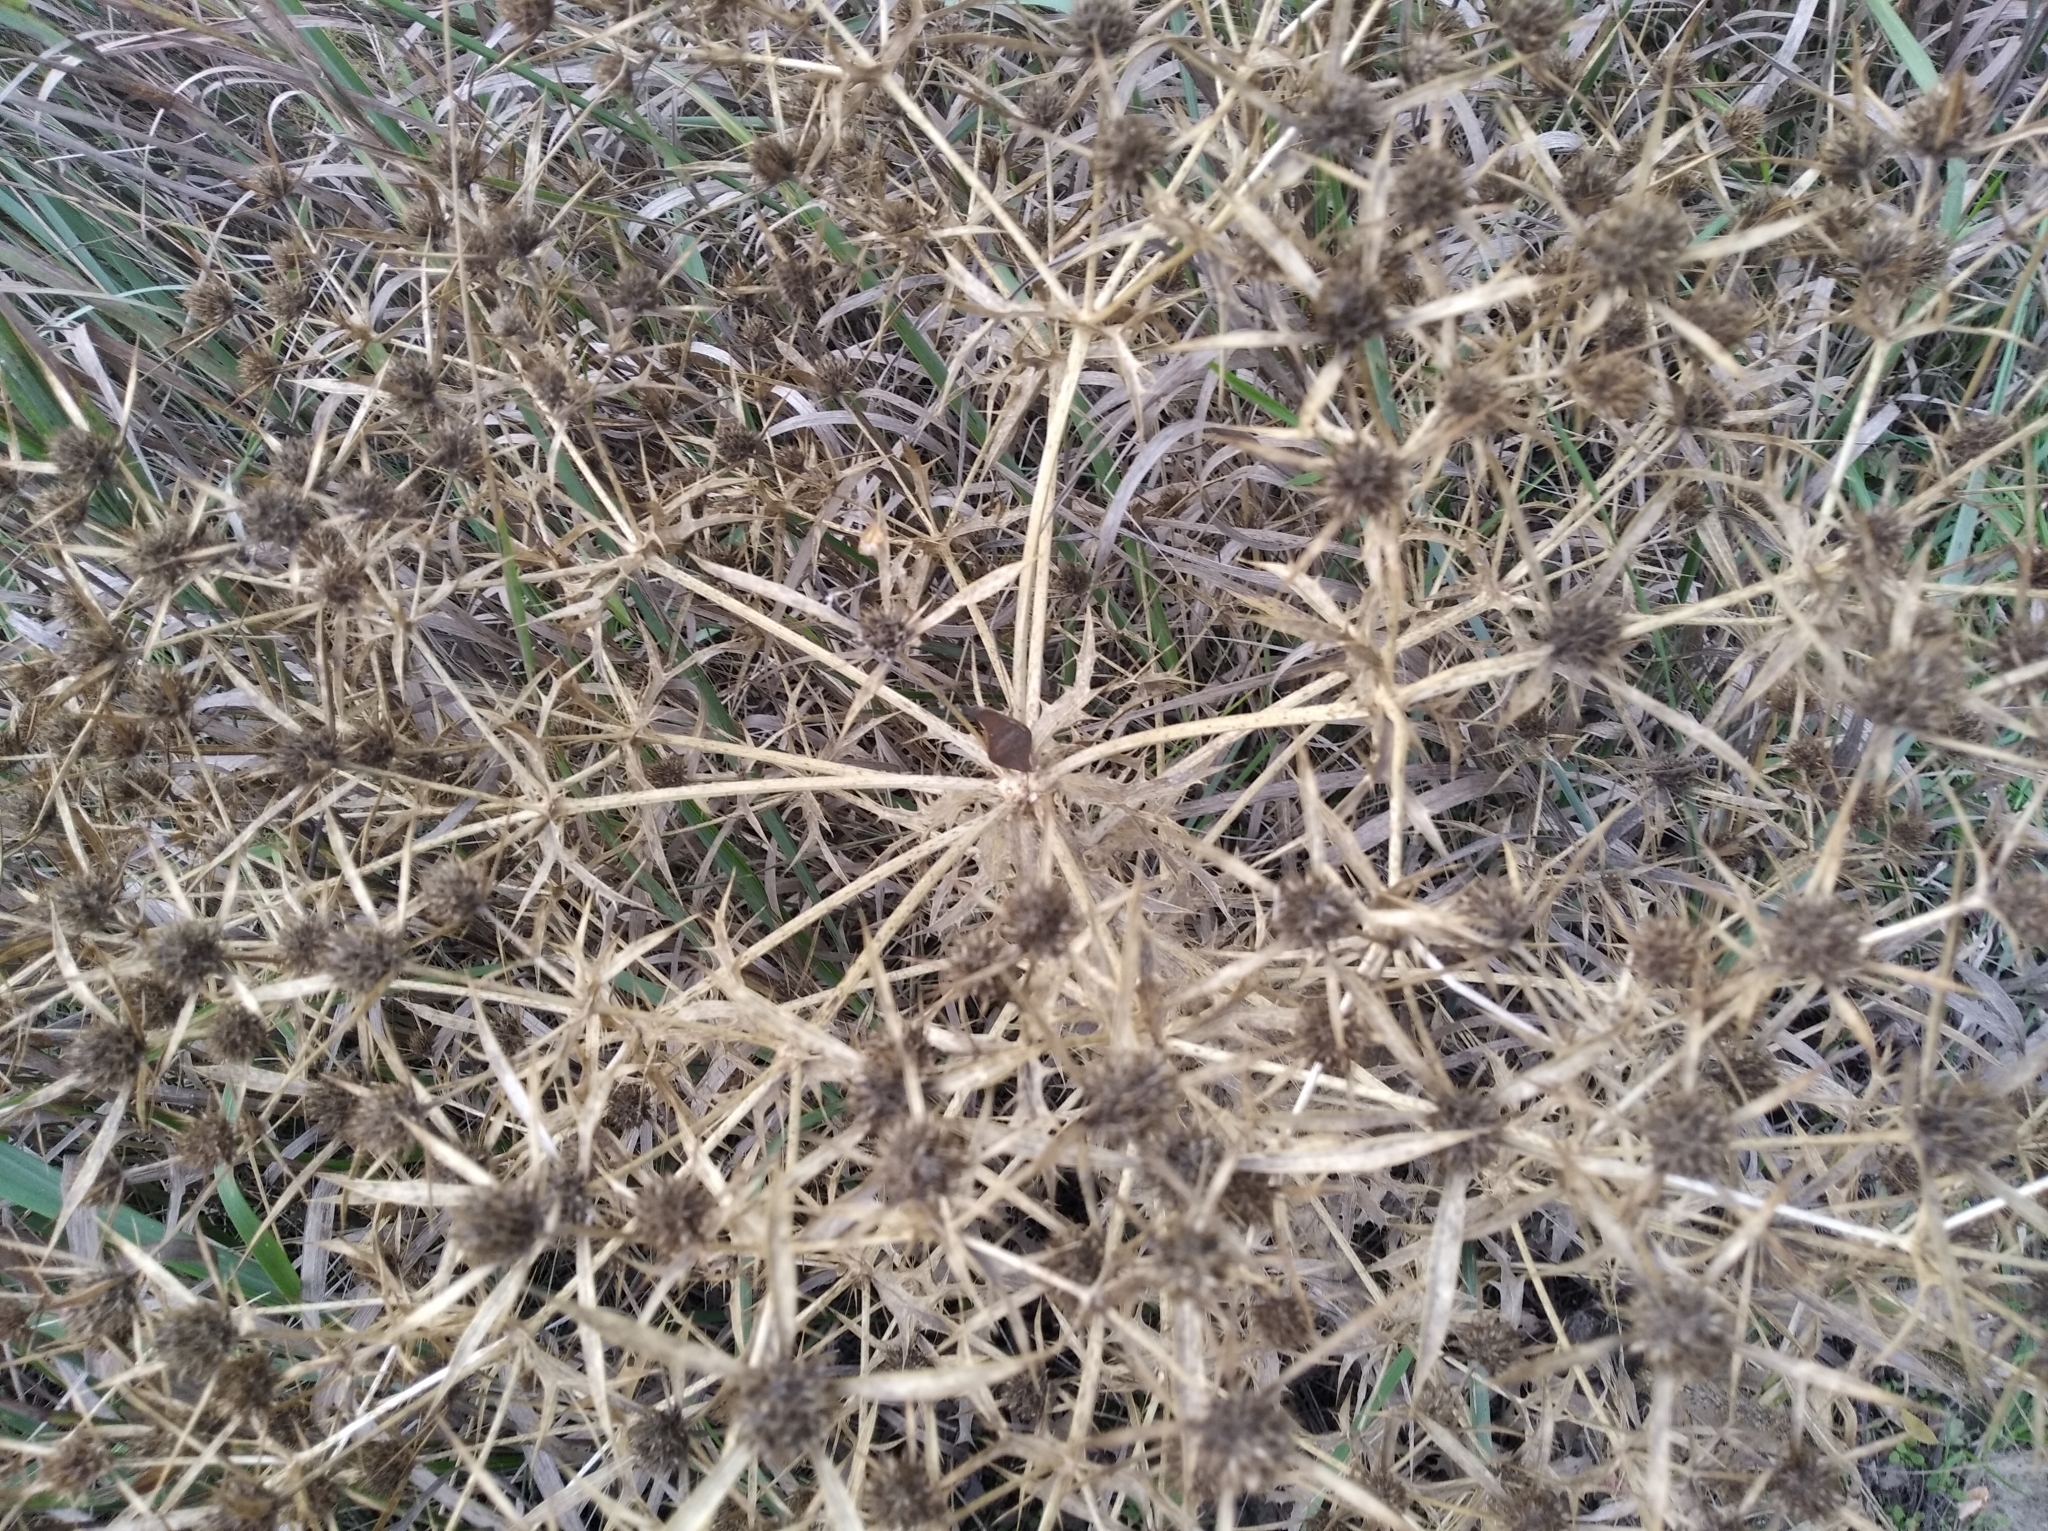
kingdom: Plantae
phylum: Tracheophyta
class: Magnoliopsida
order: Apiales
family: Apiaceae
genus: Eryngium
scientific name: Eryngium campestre
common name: Field eryngo
